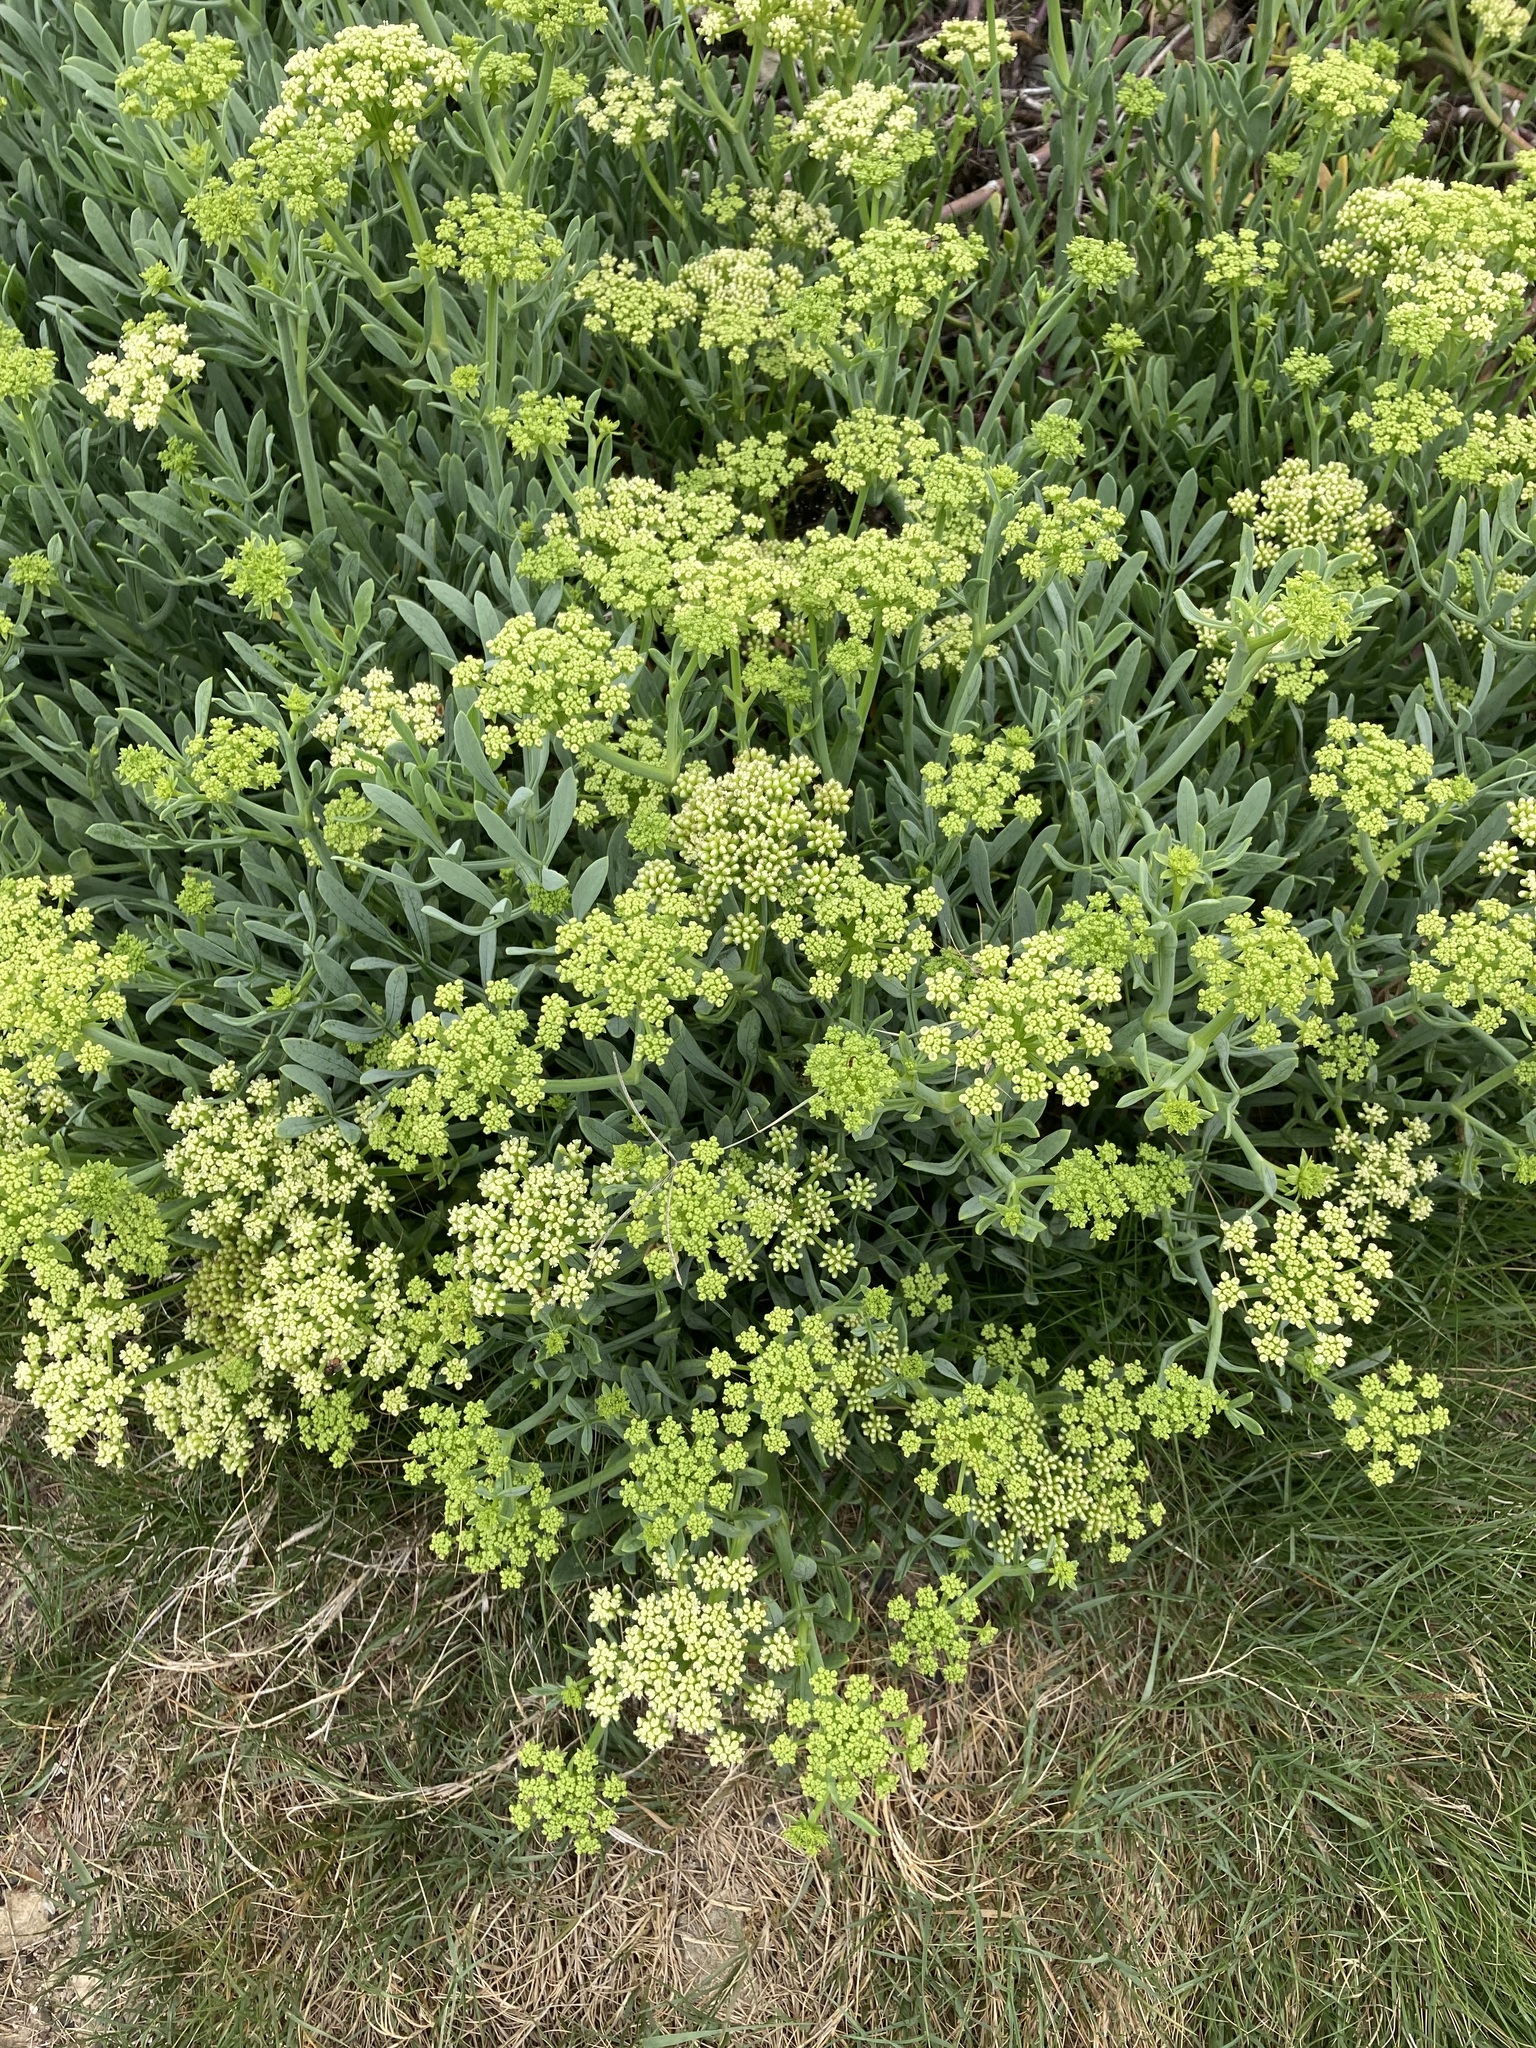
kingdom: Plantae
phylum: Tracheophyta
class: Magnoliopsida
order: Apiales
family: Apiaceae
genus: Crithmum
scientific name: Crithmum maritimum
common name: Rock samphire
